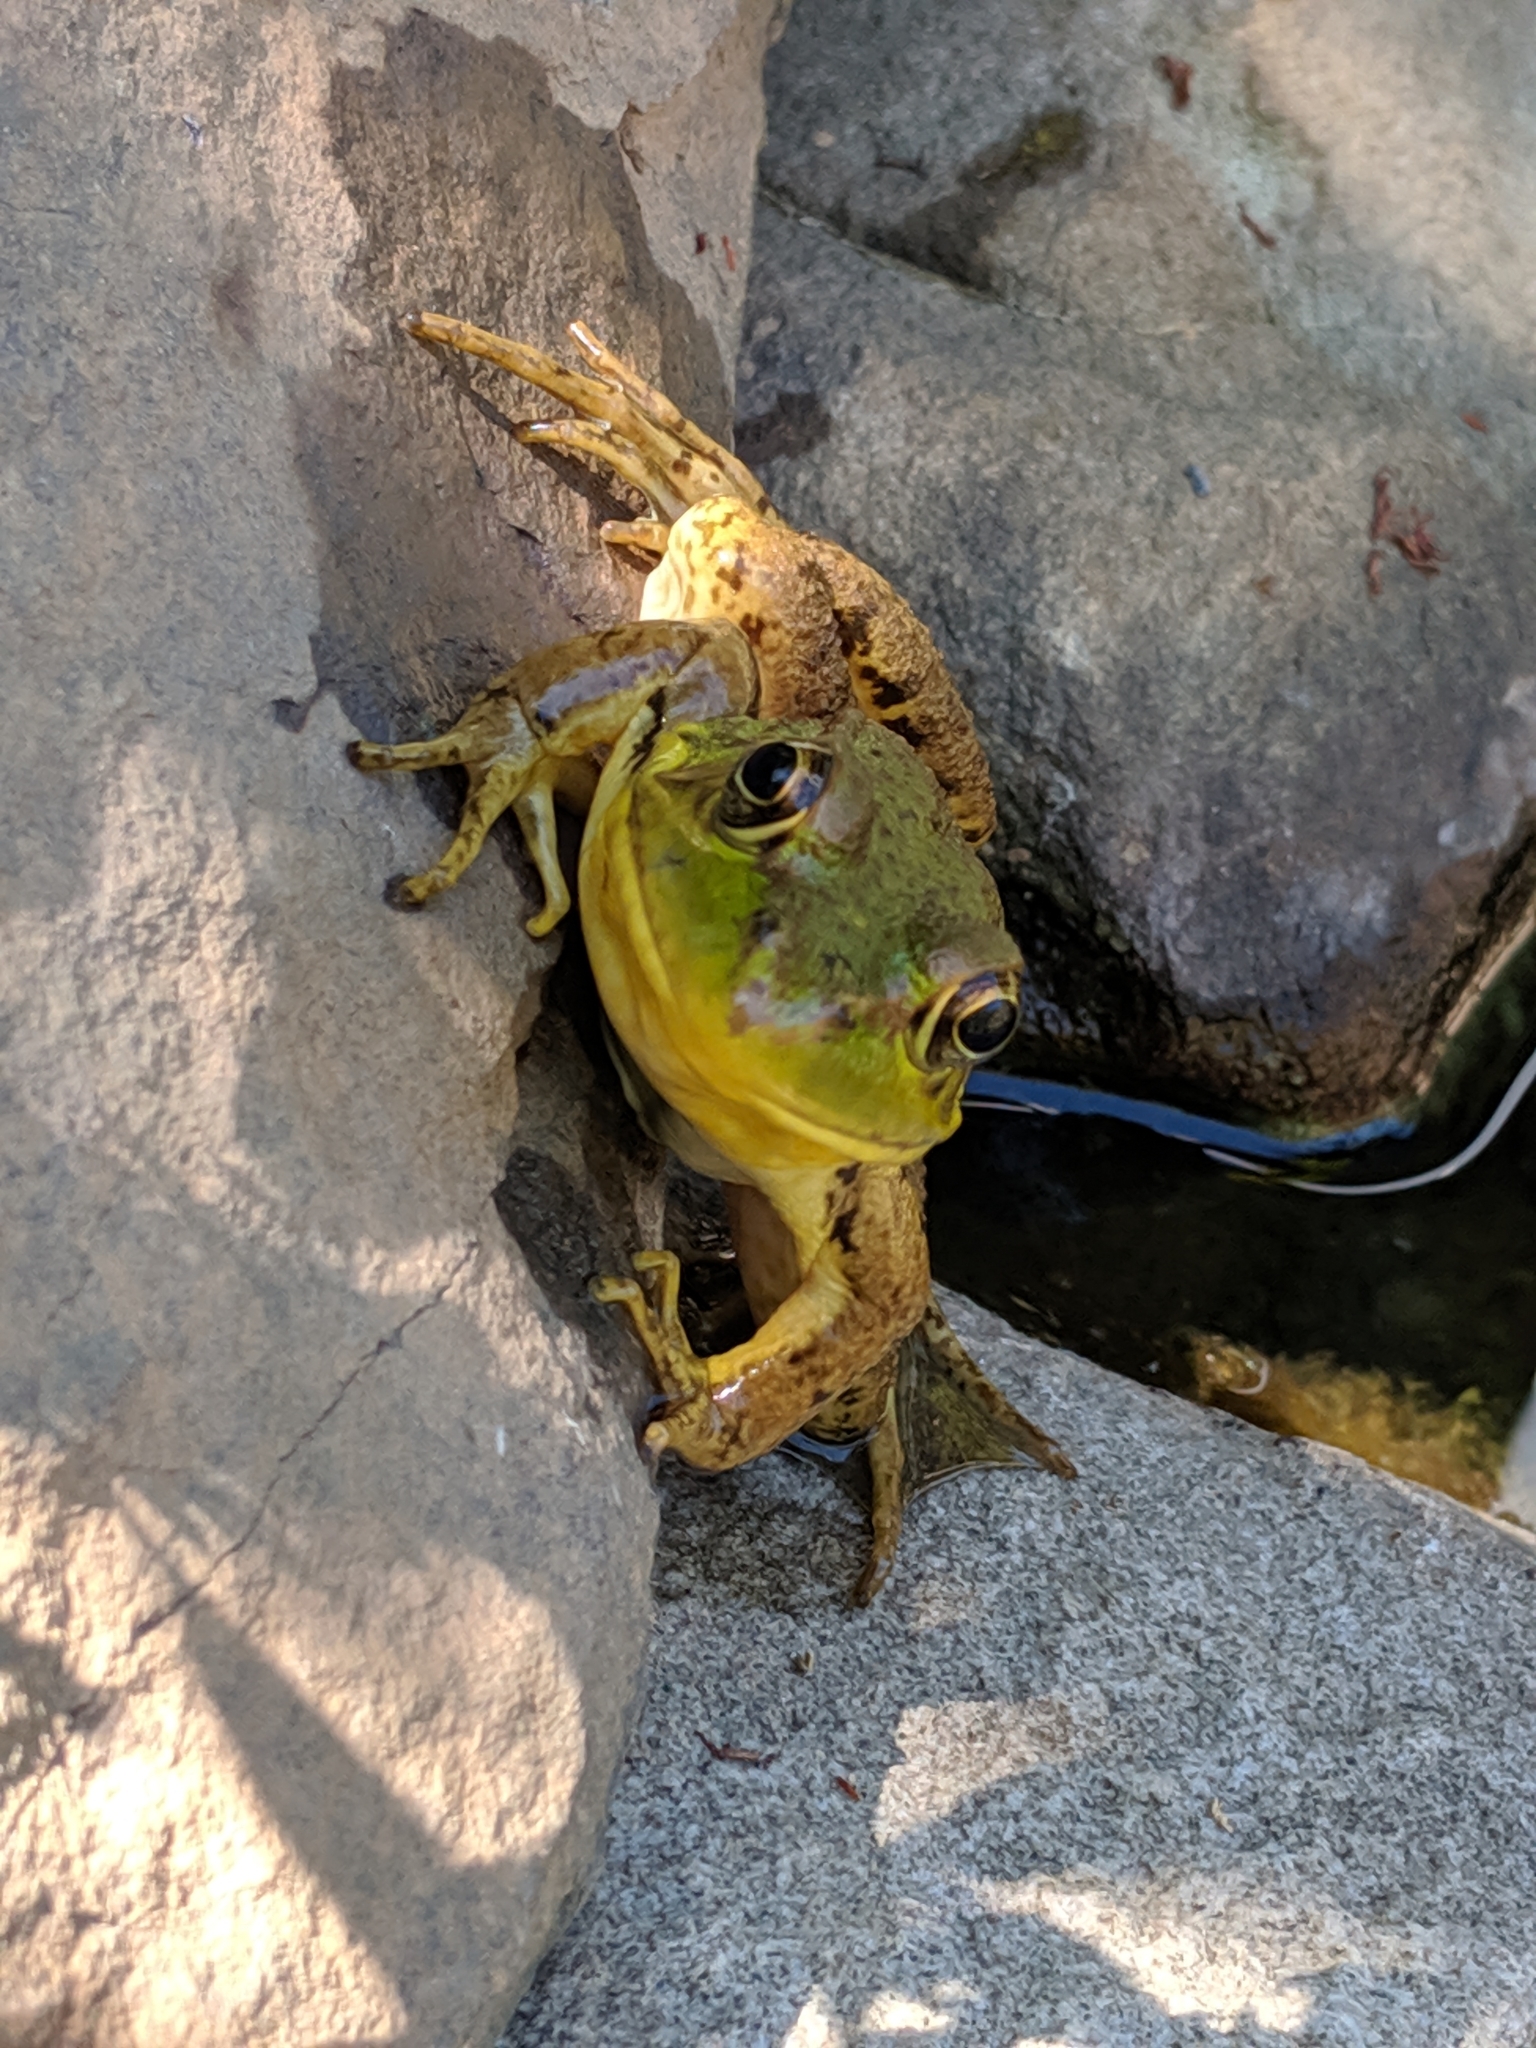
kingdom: Animalia
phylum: Chordata
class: Amphibia
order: Anura
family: Ranidae
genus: Lithobates
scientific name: Lithobates clamitans
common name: Green frog
